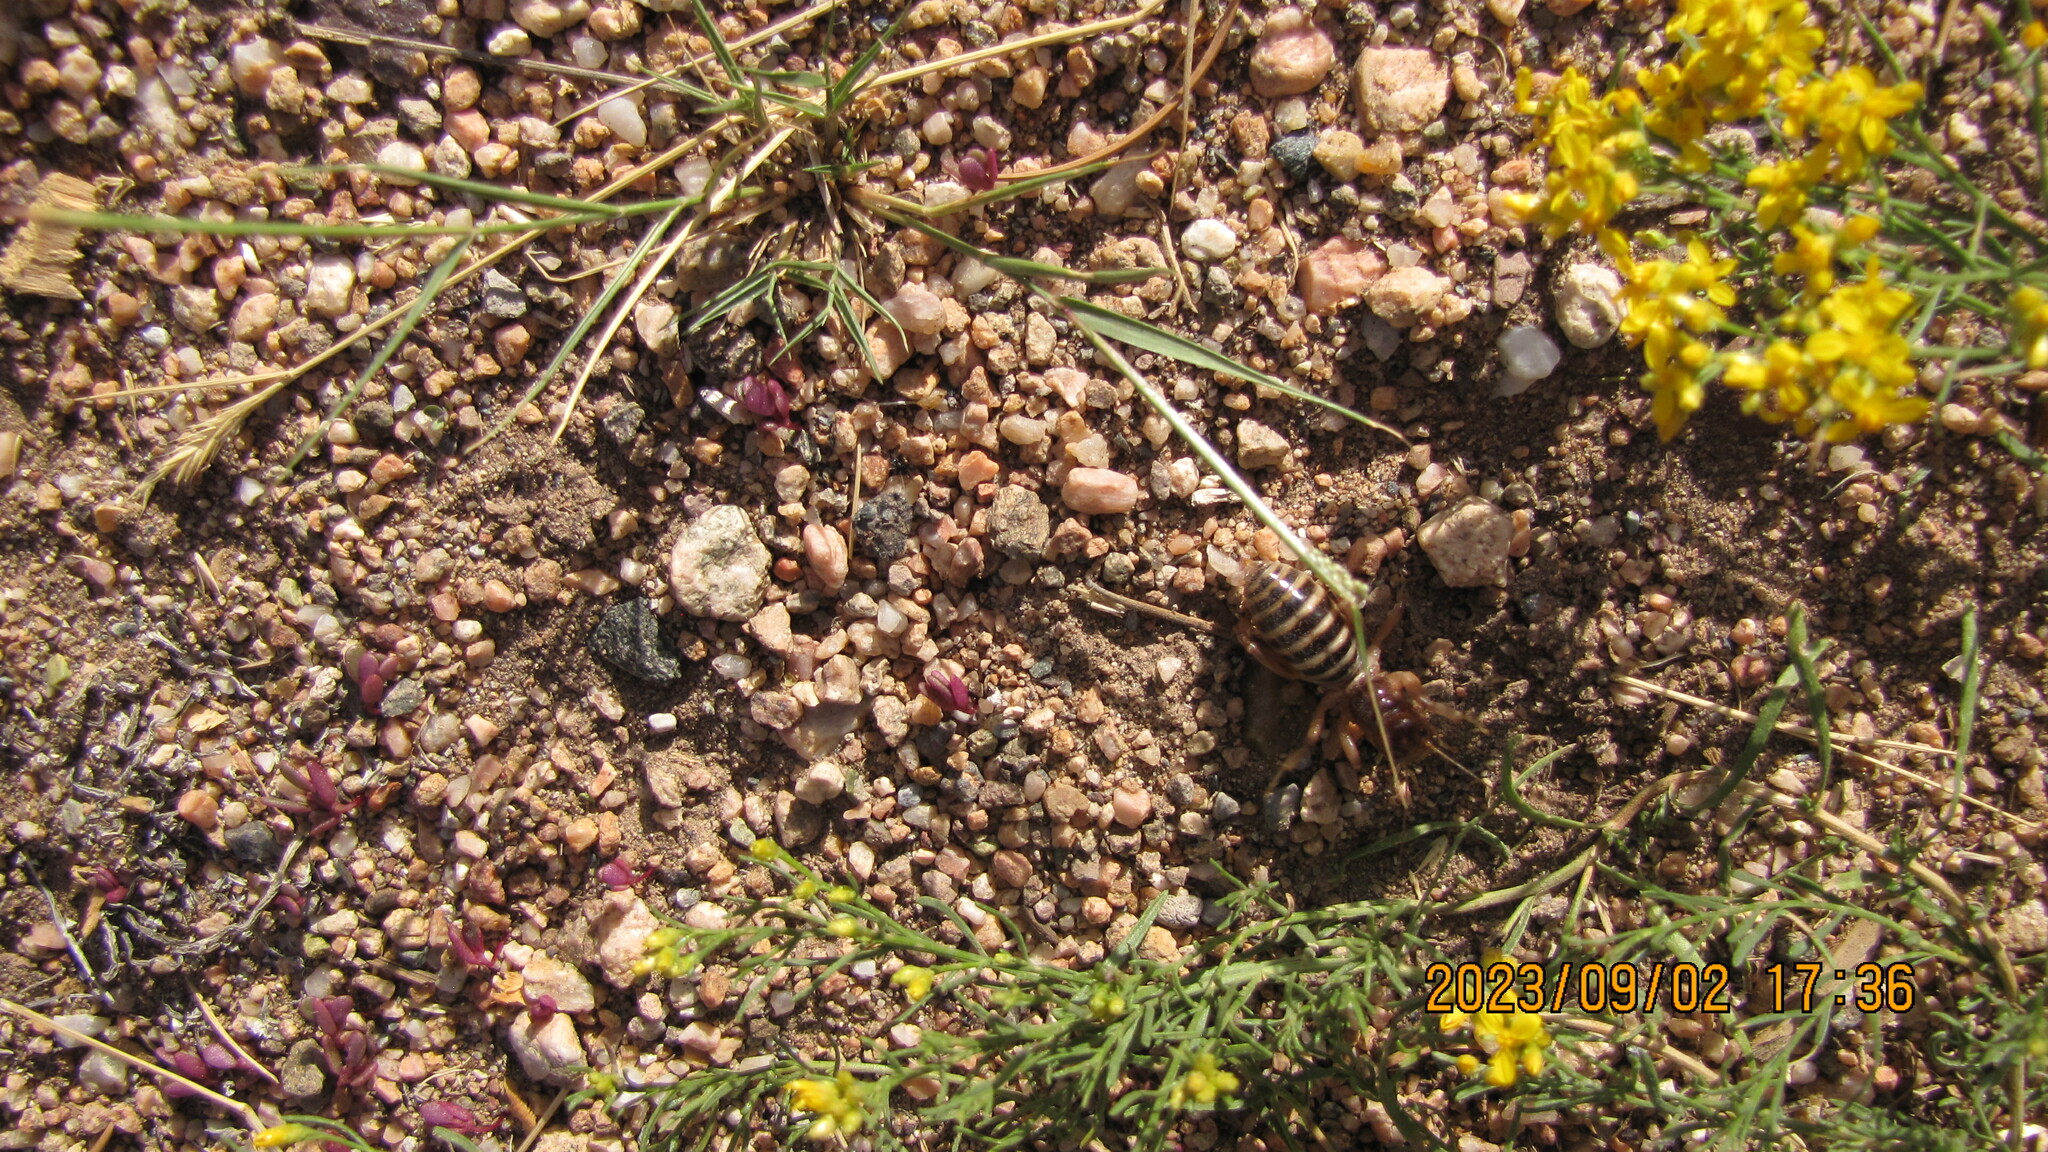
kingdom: Animalia
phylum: Arthropoda
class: Insecta
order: Orthoptera
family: Stenopelmatidae
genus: Ammopelmatus
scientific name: Ammopelmatus fuscus
